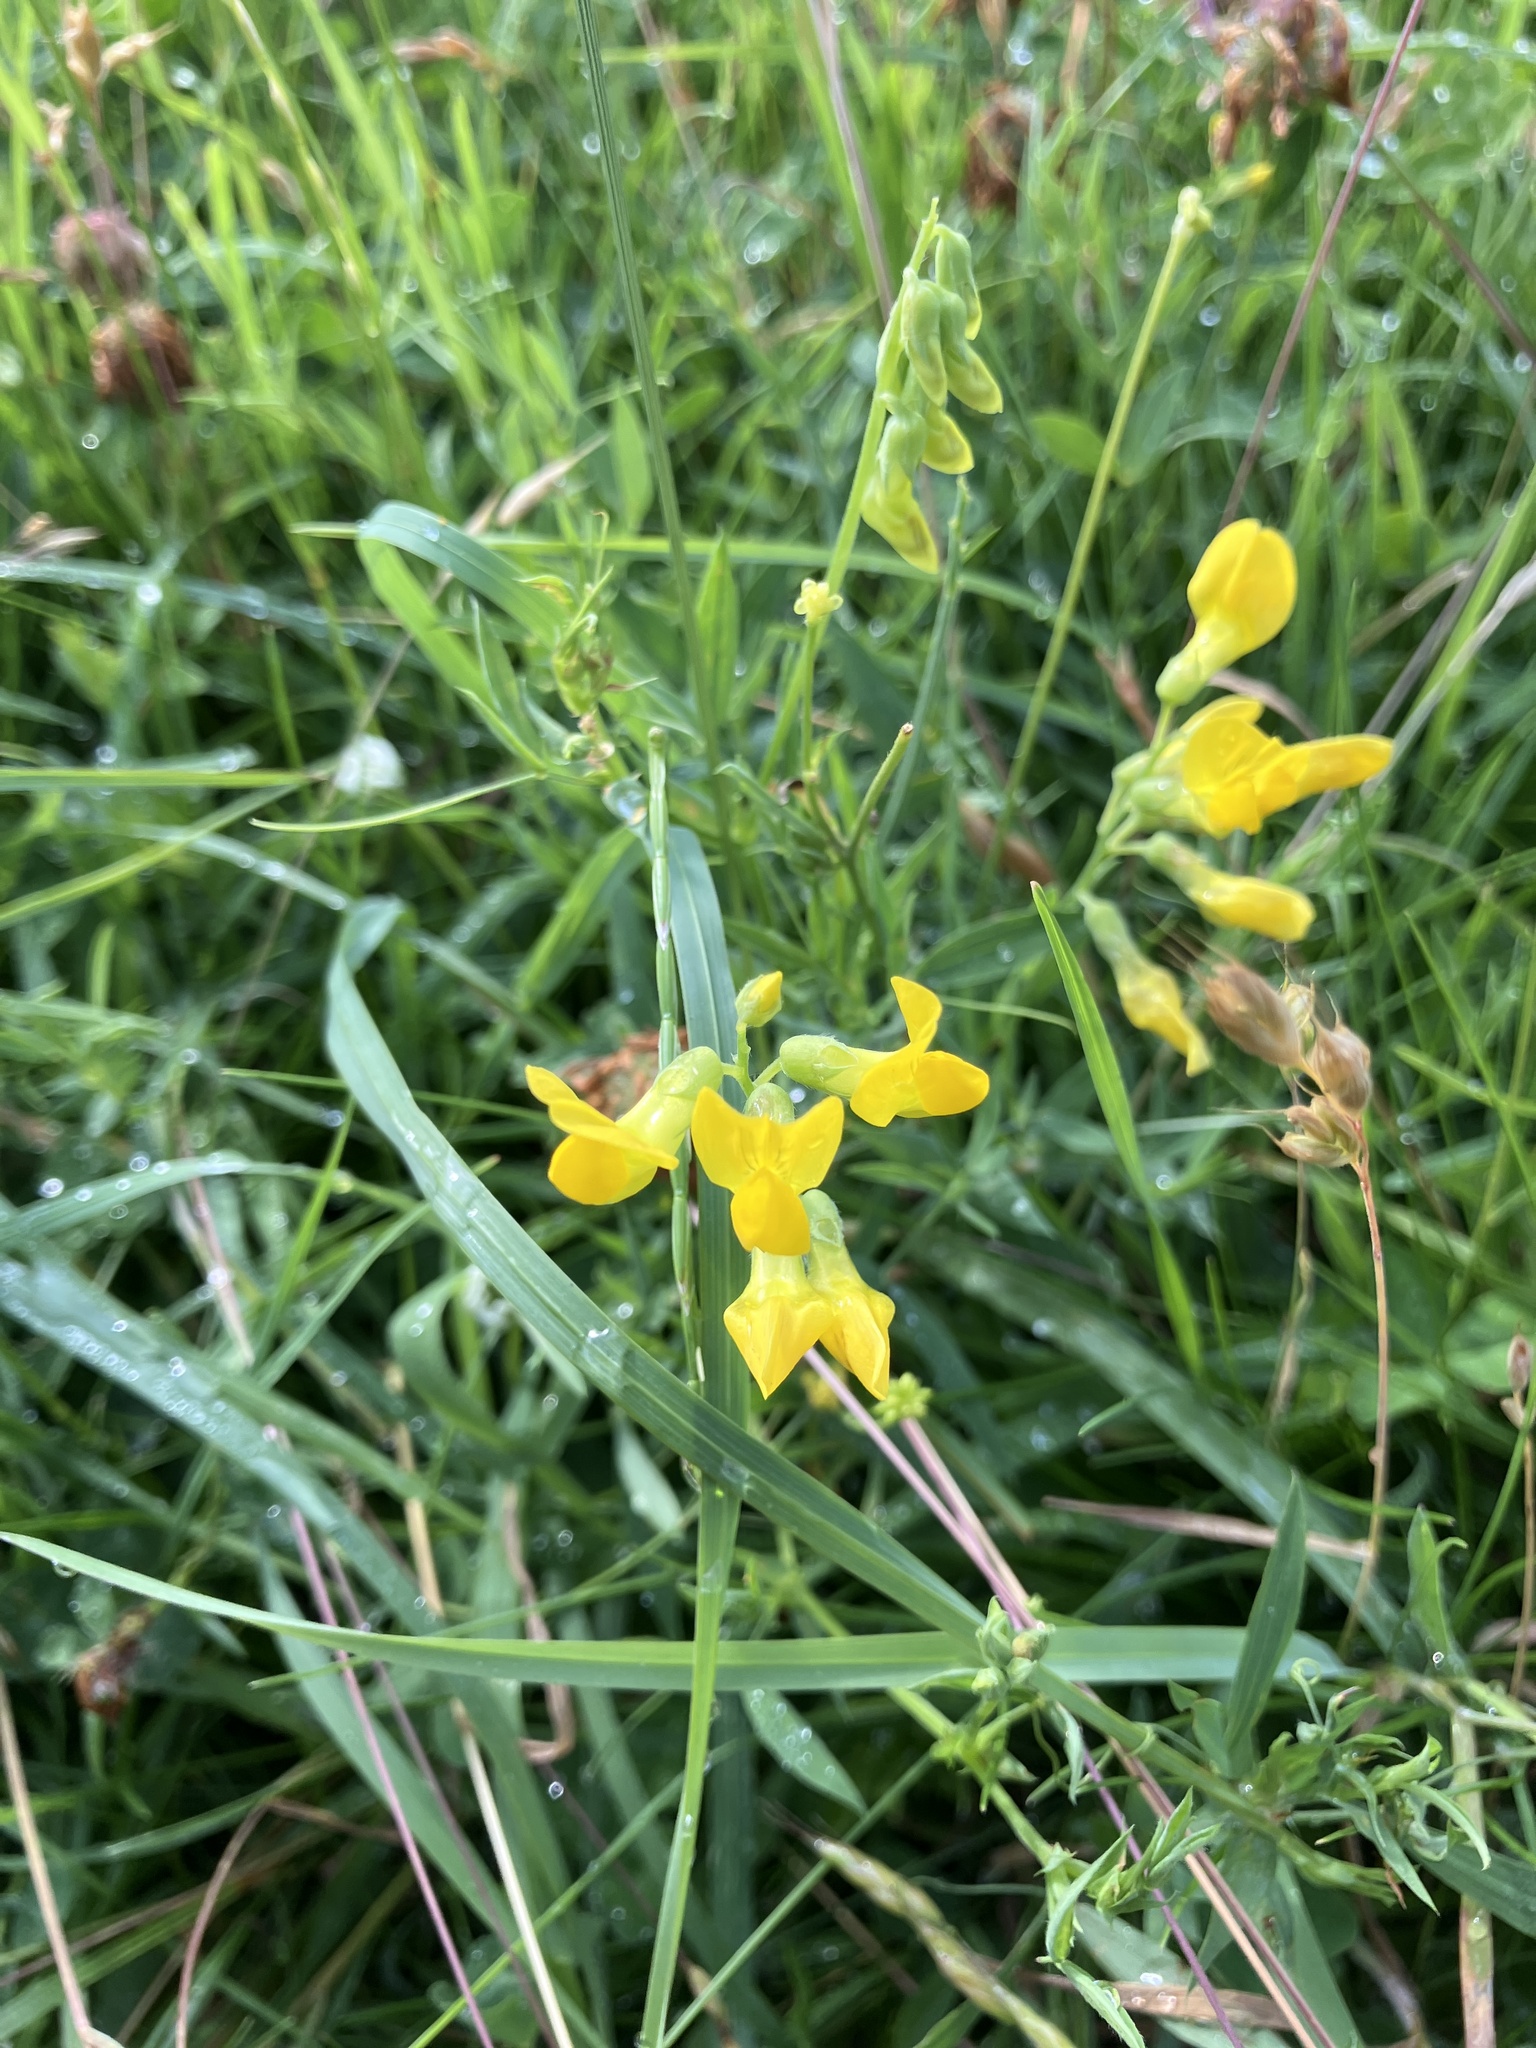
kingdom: Plantae
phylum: Tracheophyta
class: Magnoliopsida
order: Fabales
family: Fabaceae
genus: Lathyrus
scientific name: Lathyrus pratensis
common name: Meadow vetchling
